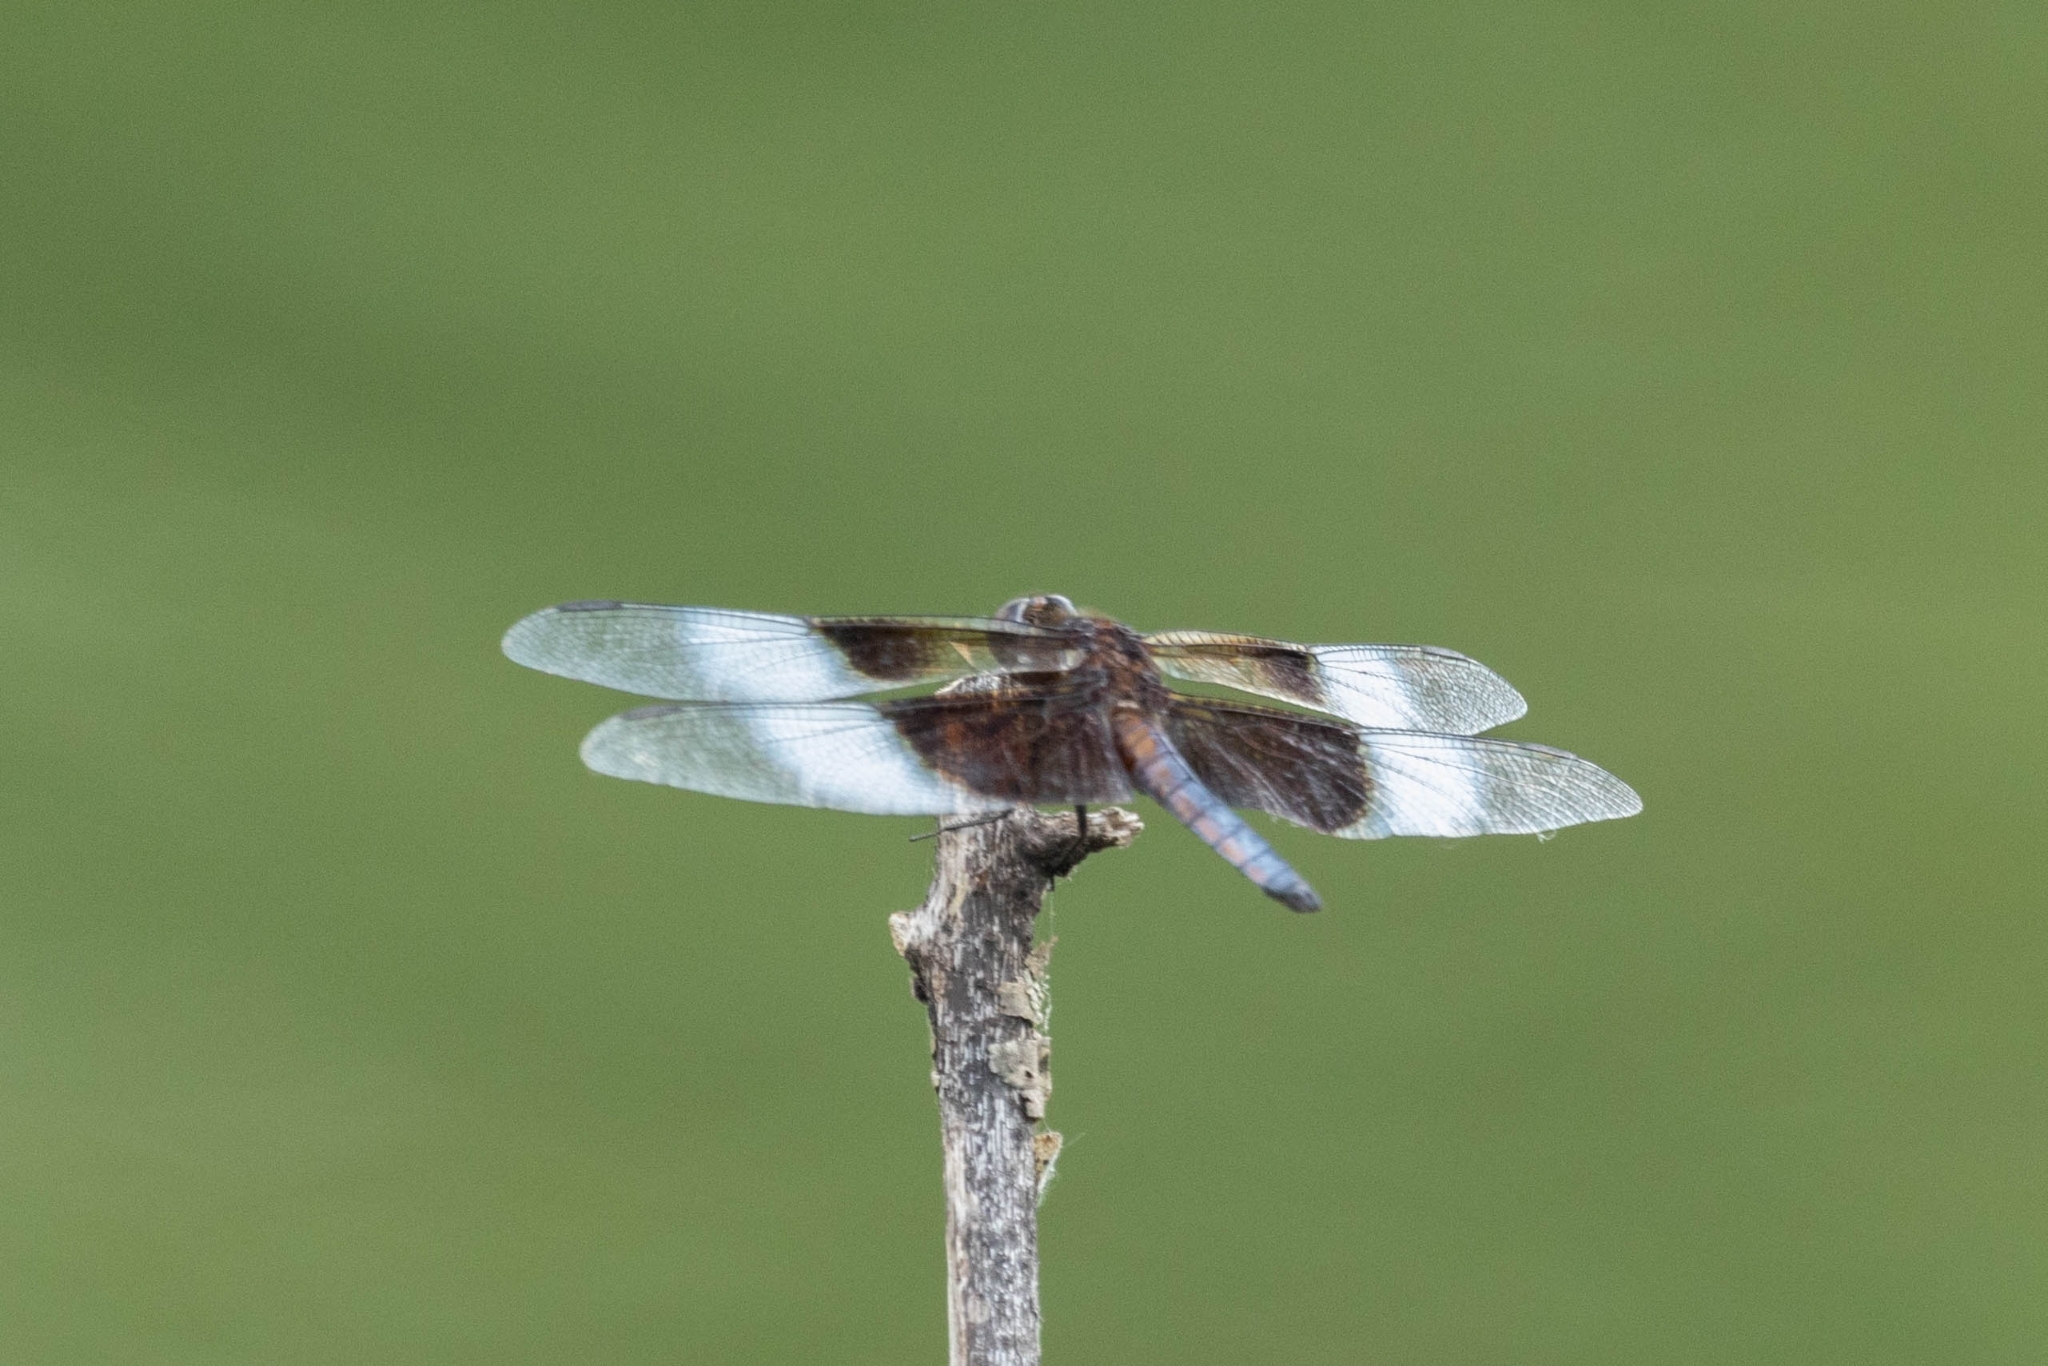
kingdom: Animalia
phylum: Arthropoda
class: Insecta
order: Odonata
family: Libellulidae
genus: Libellula
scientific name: Libellula luctuosa
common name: Widow skimmer
